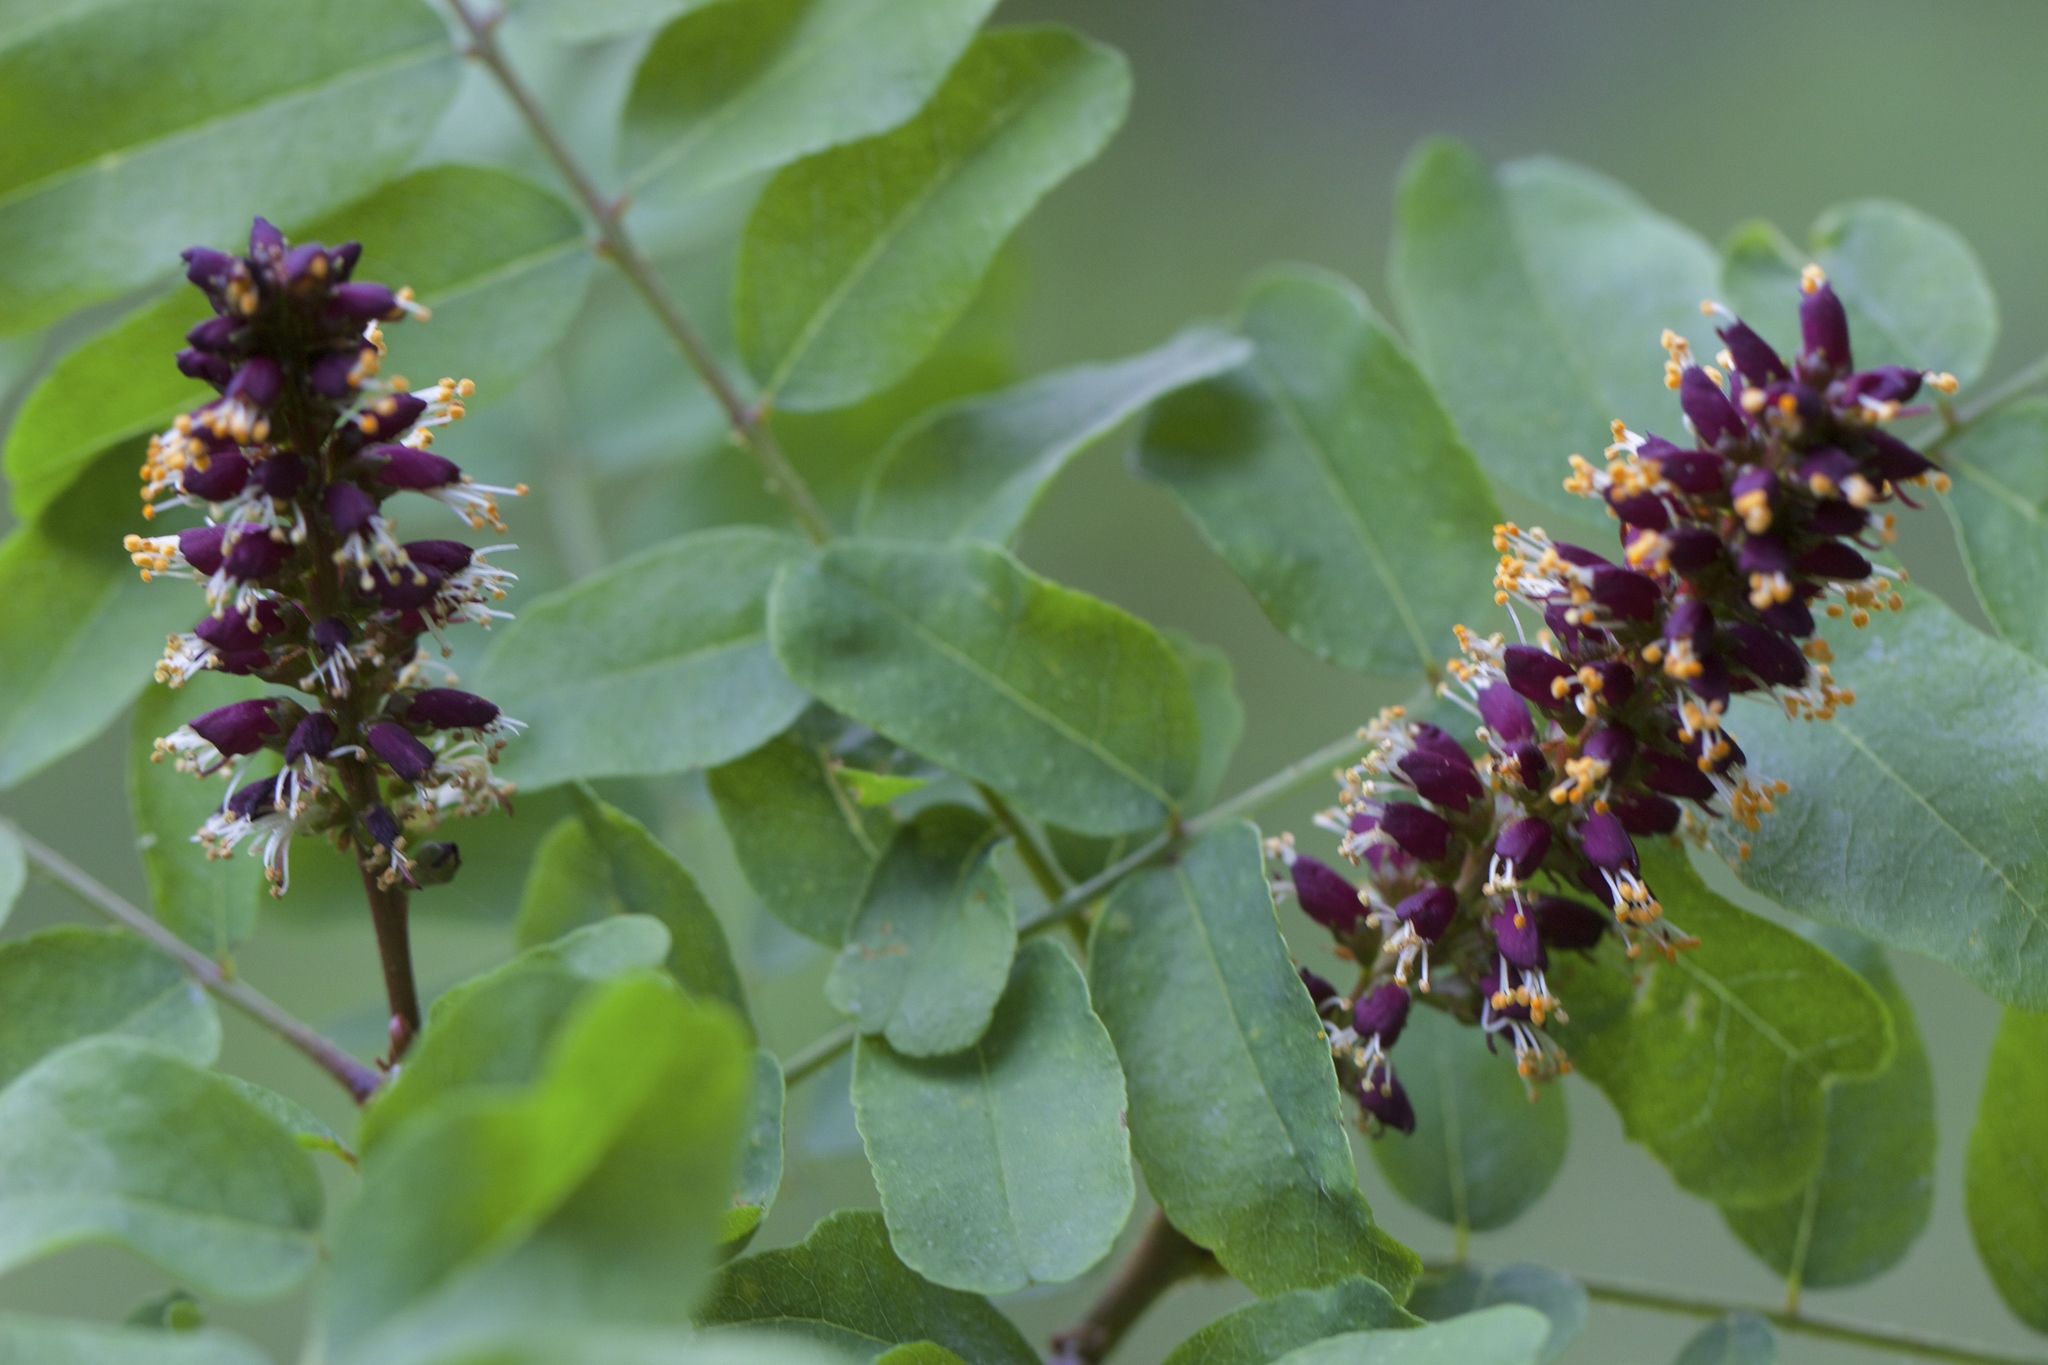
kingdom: Plantae
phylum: Tracheophyta
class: Magnoliopsida
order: Fabales
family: Fabaceae
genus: Amorpha
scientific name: Amorpha californica
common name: California indigobush
